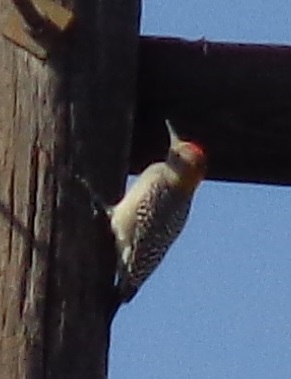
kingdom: Animalia
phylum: Chordata
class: Aves
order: Piciformes
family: Picidae
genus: Melanerpes
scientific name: Melanerpes aurifrons
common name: Golden-fronted woodpecker
